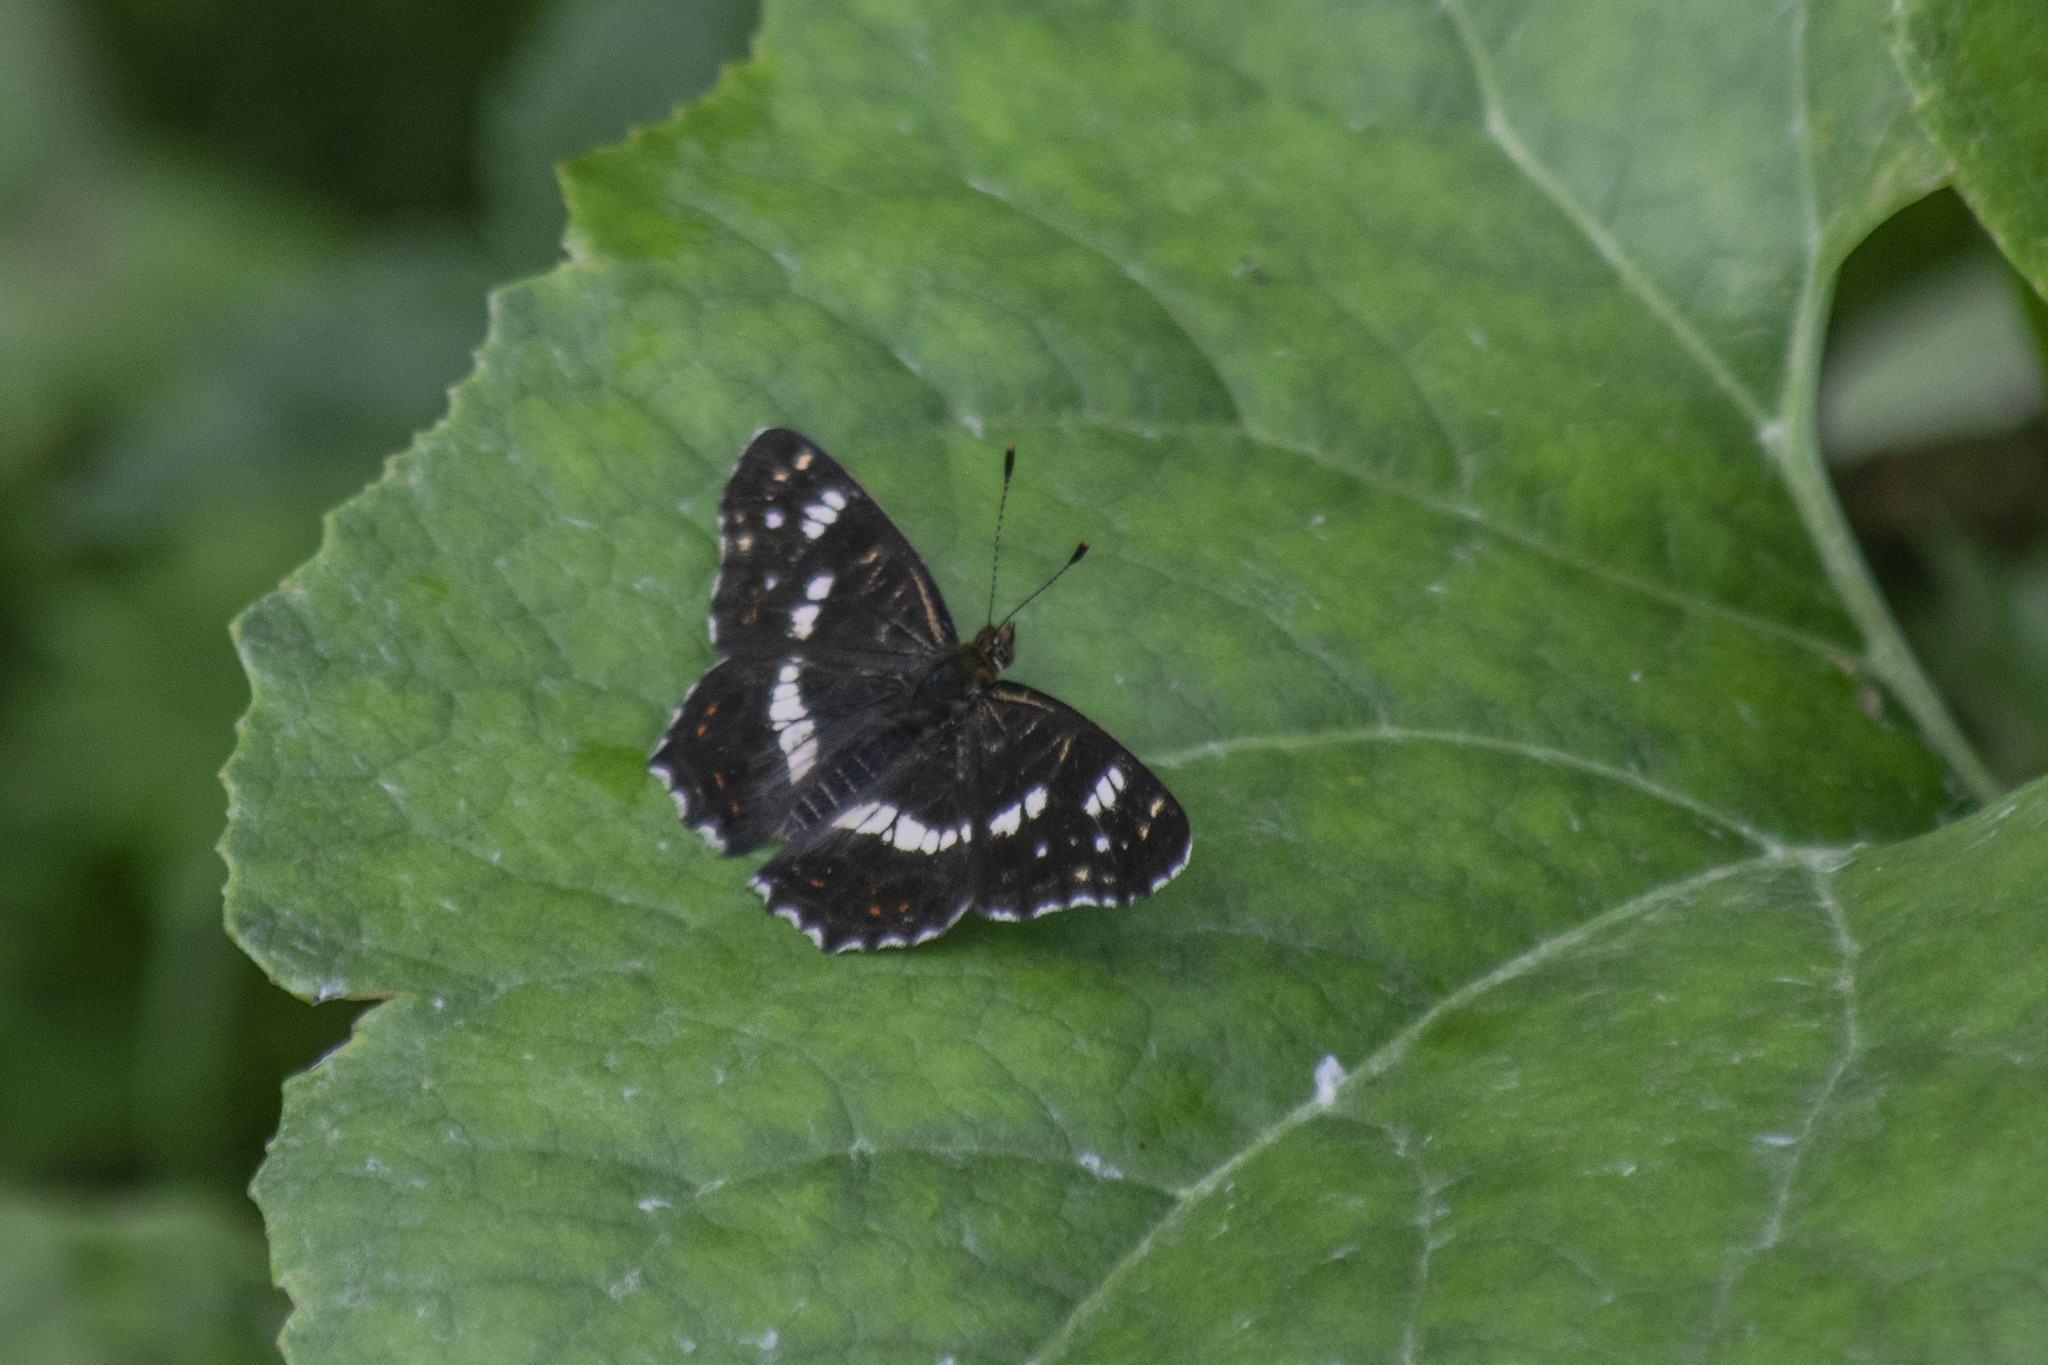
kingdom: Animalia
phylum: Arthropoda
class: Insecta
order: Lepidoptera
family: Nymphalidae
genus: Araschnia
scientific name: Araschnia levana
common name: Map butterfly
